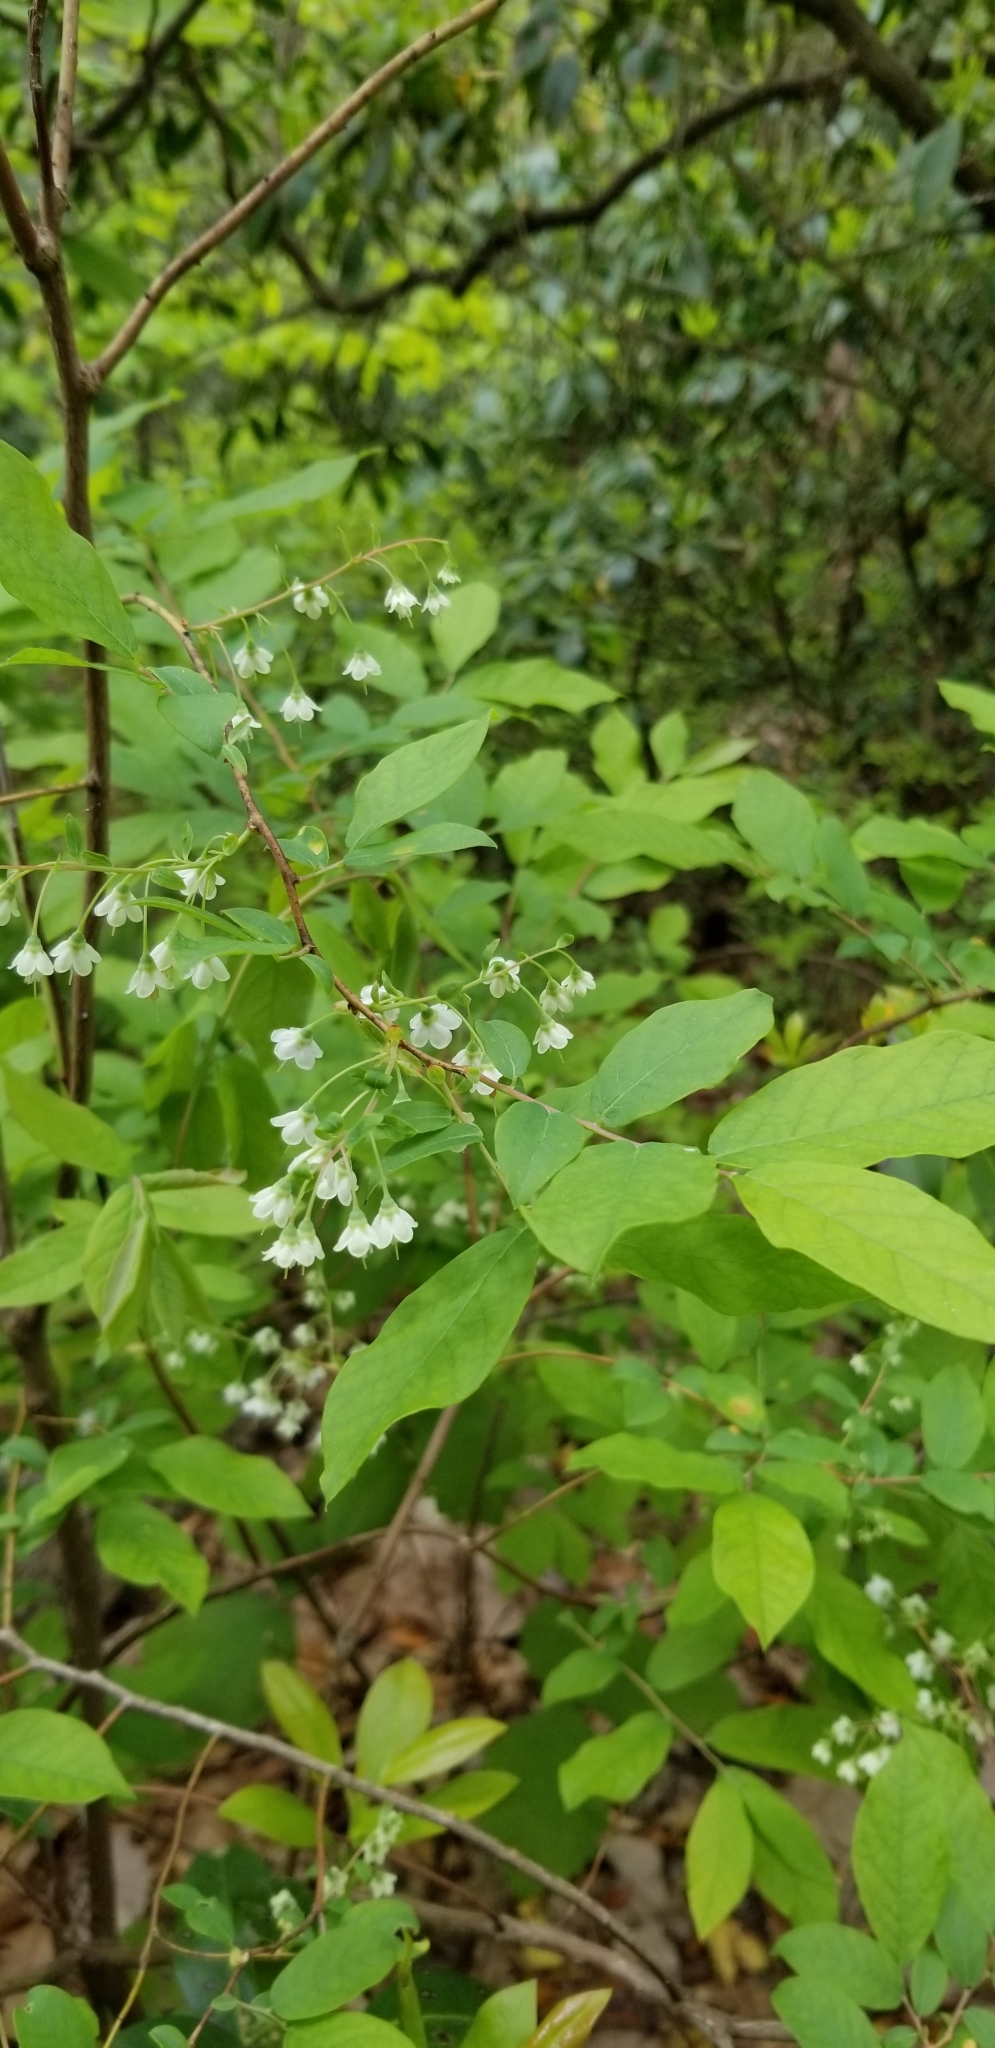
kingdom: Plantae
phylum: Tracheophyta
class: Magnoliopsida
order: Ericales
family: Ericaceae
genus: Vaccinium
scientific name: Vaccinium stamineum
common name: Deerberry
